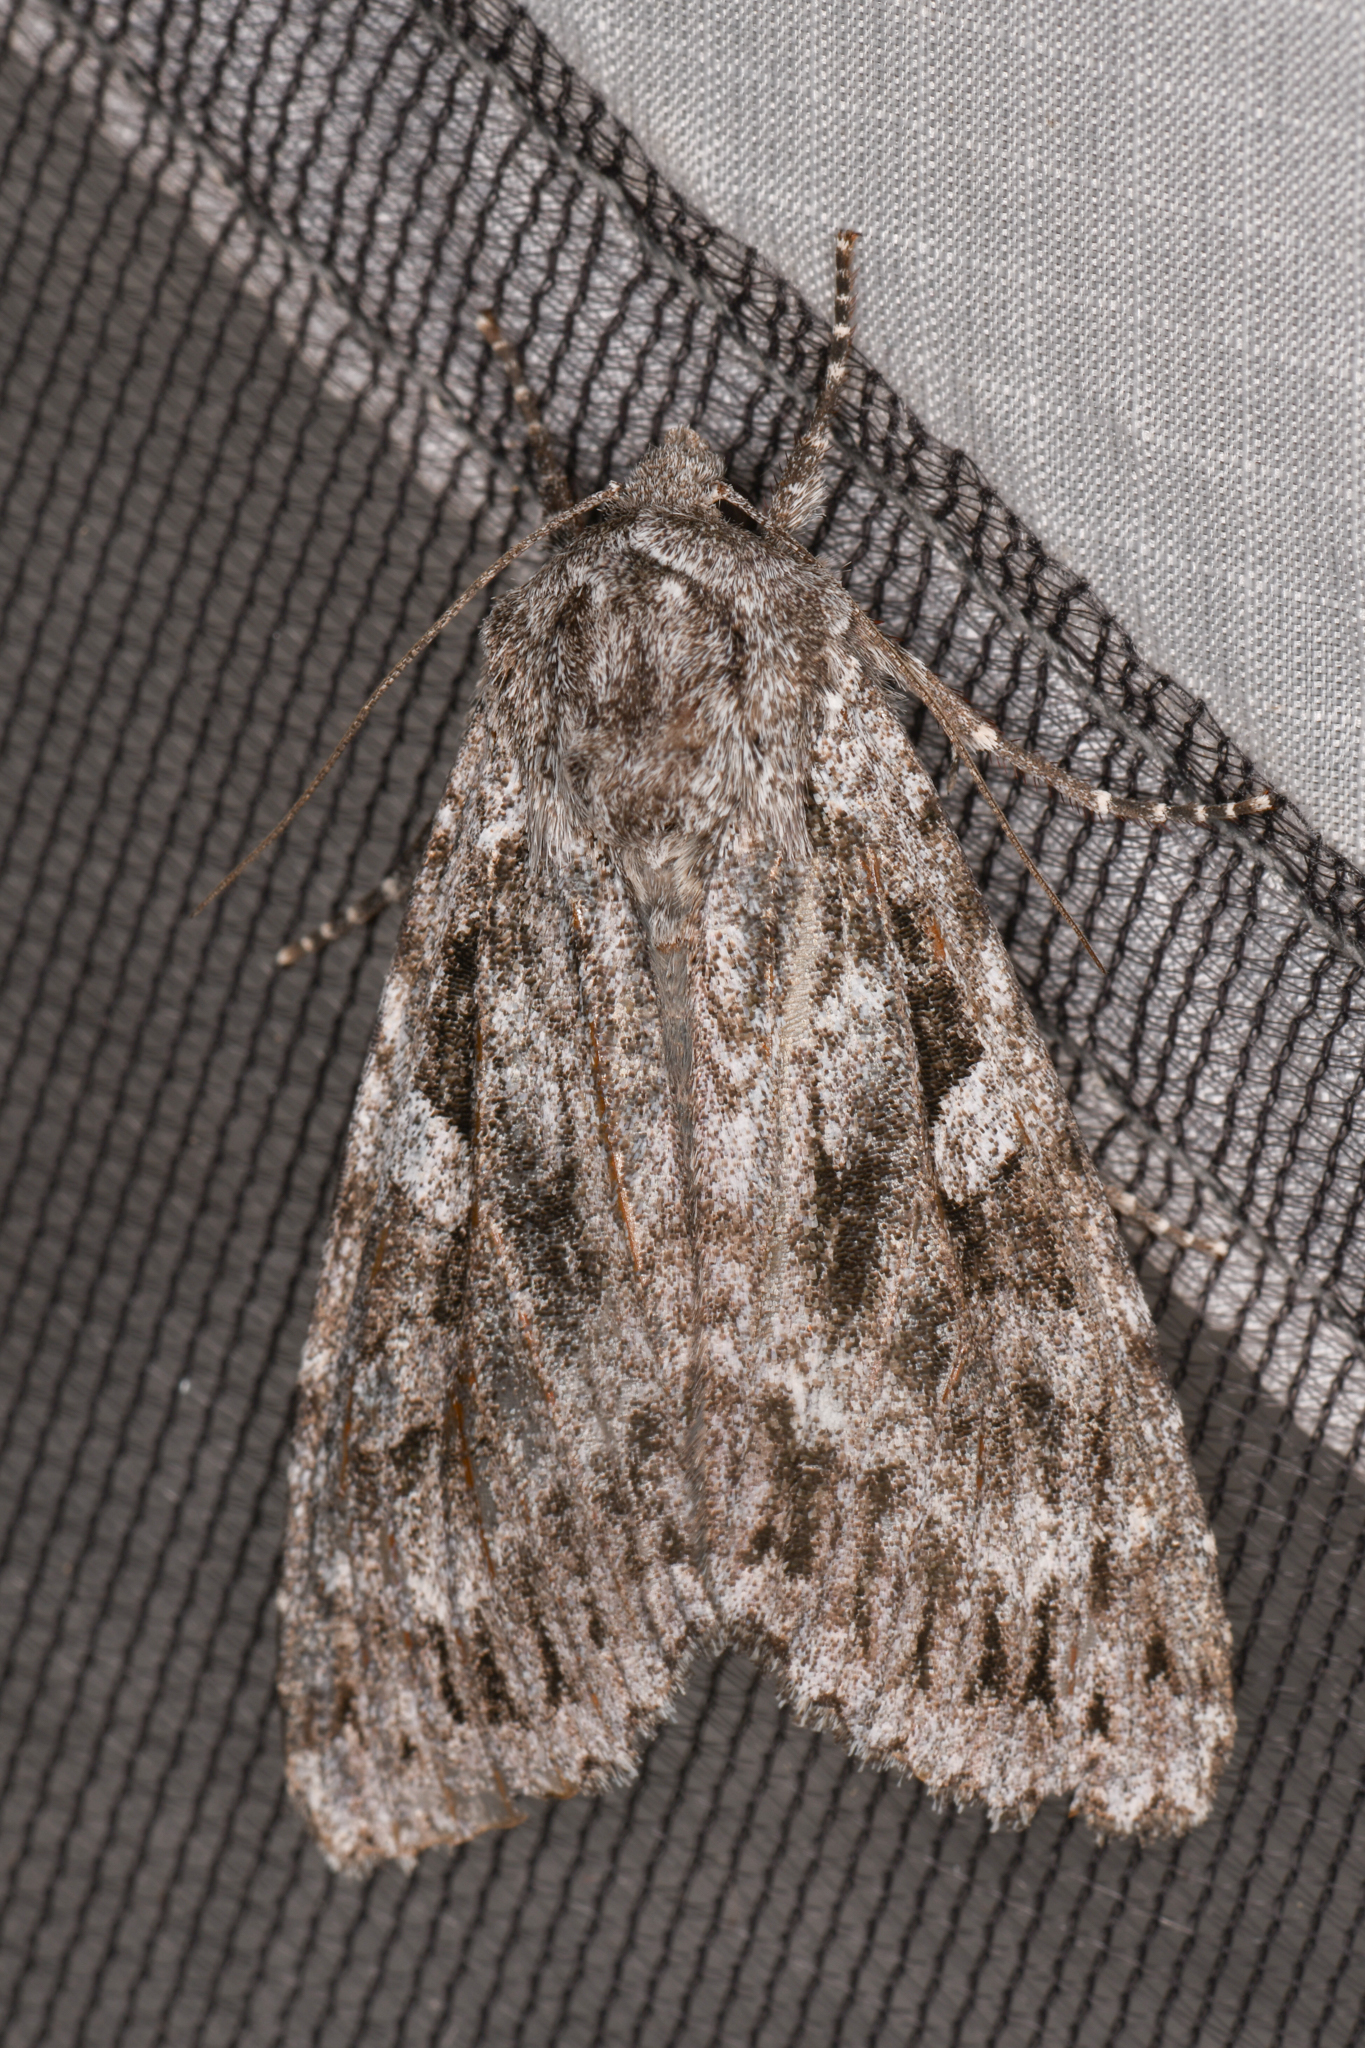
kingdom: Animalia
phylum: Arthropoda
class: Insecta
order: Lepidoptera
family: Noctuidae
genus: Eurois
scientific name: Eurois occulta
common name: Great brocade
